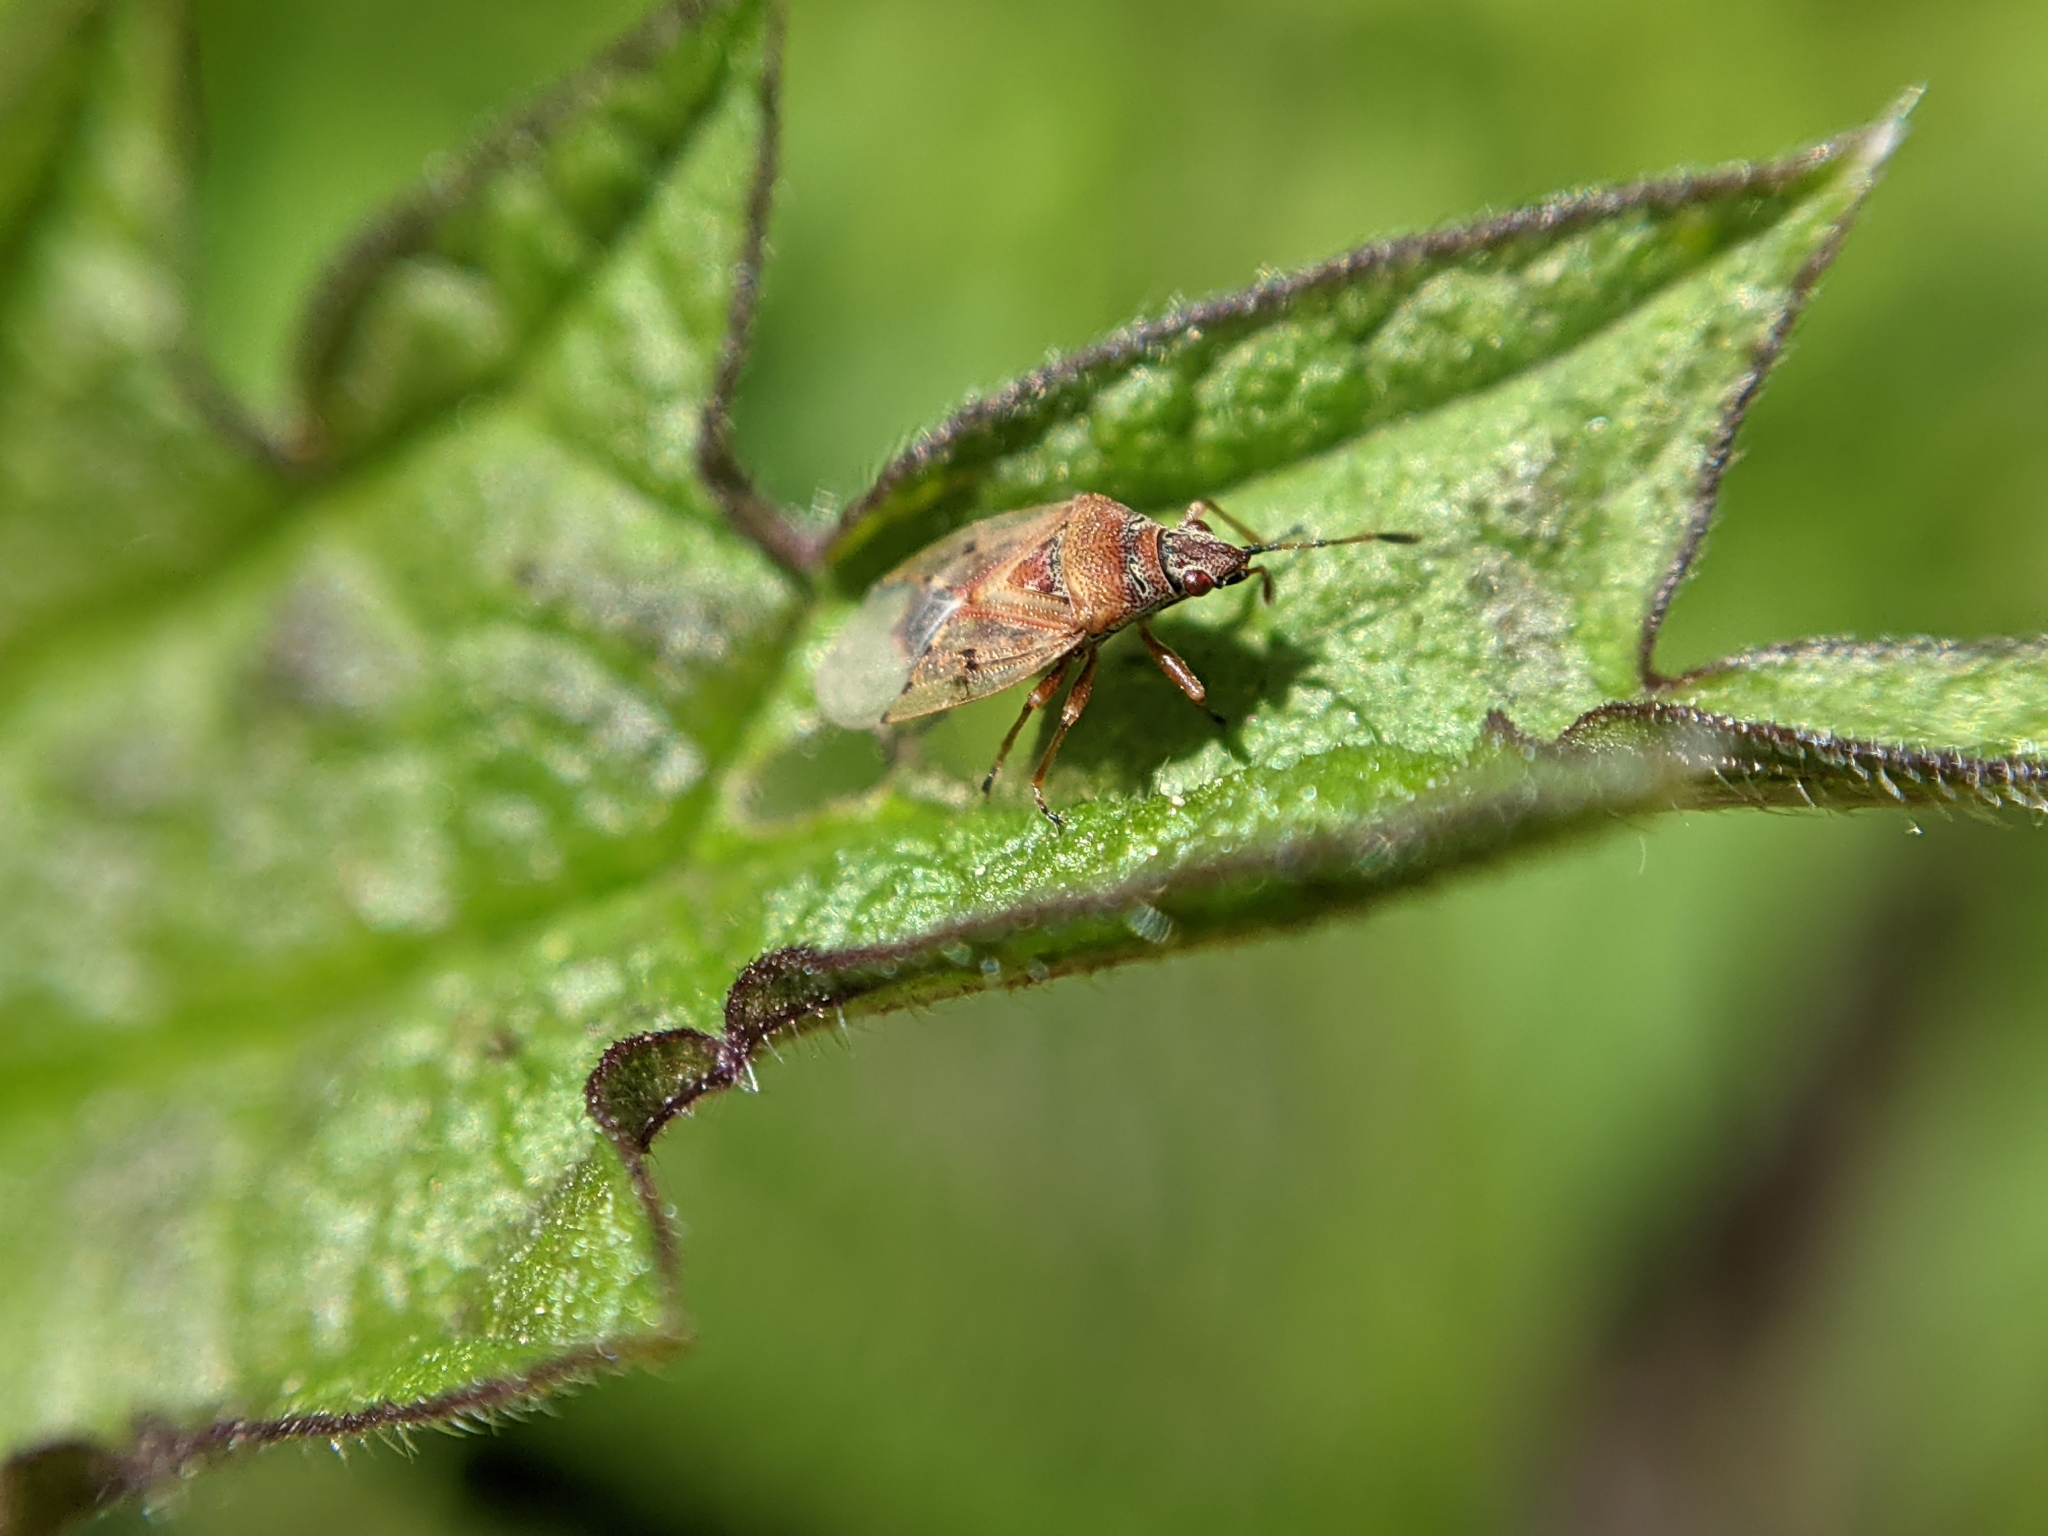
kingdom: Animalia
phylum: Arthropoda
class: Insecta
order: Hemiptera
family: Lygaeidae
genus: Kleidocerys
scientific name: Kleidocerys resedae
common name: Birch catkin bug
